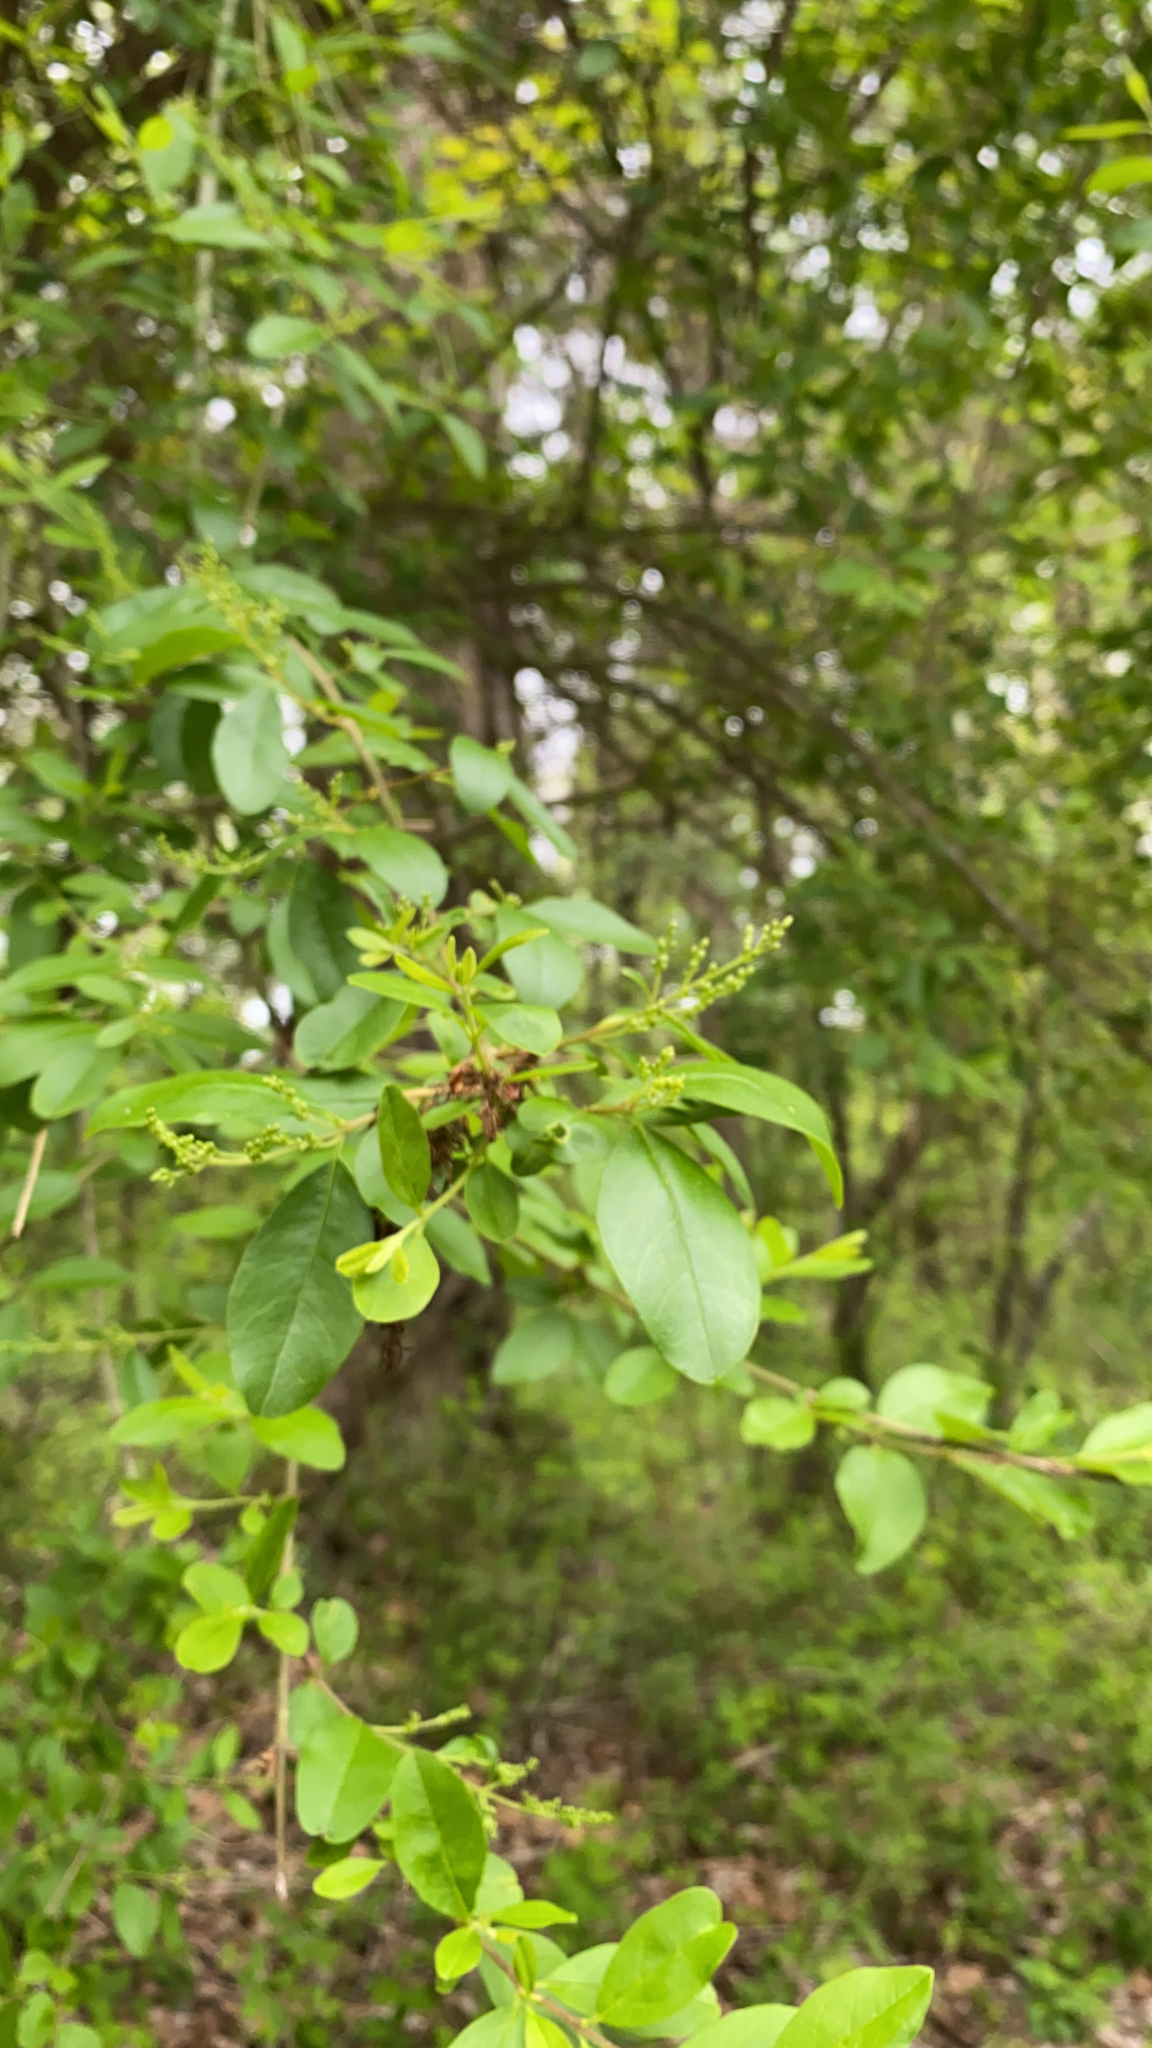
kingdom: Plantae
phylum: Tracheophyta
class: Magnoliopsida
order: Lamiales
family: Oleaceae
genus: Ligustrum
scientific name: Ligustrum sinense
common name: Chinese privet
